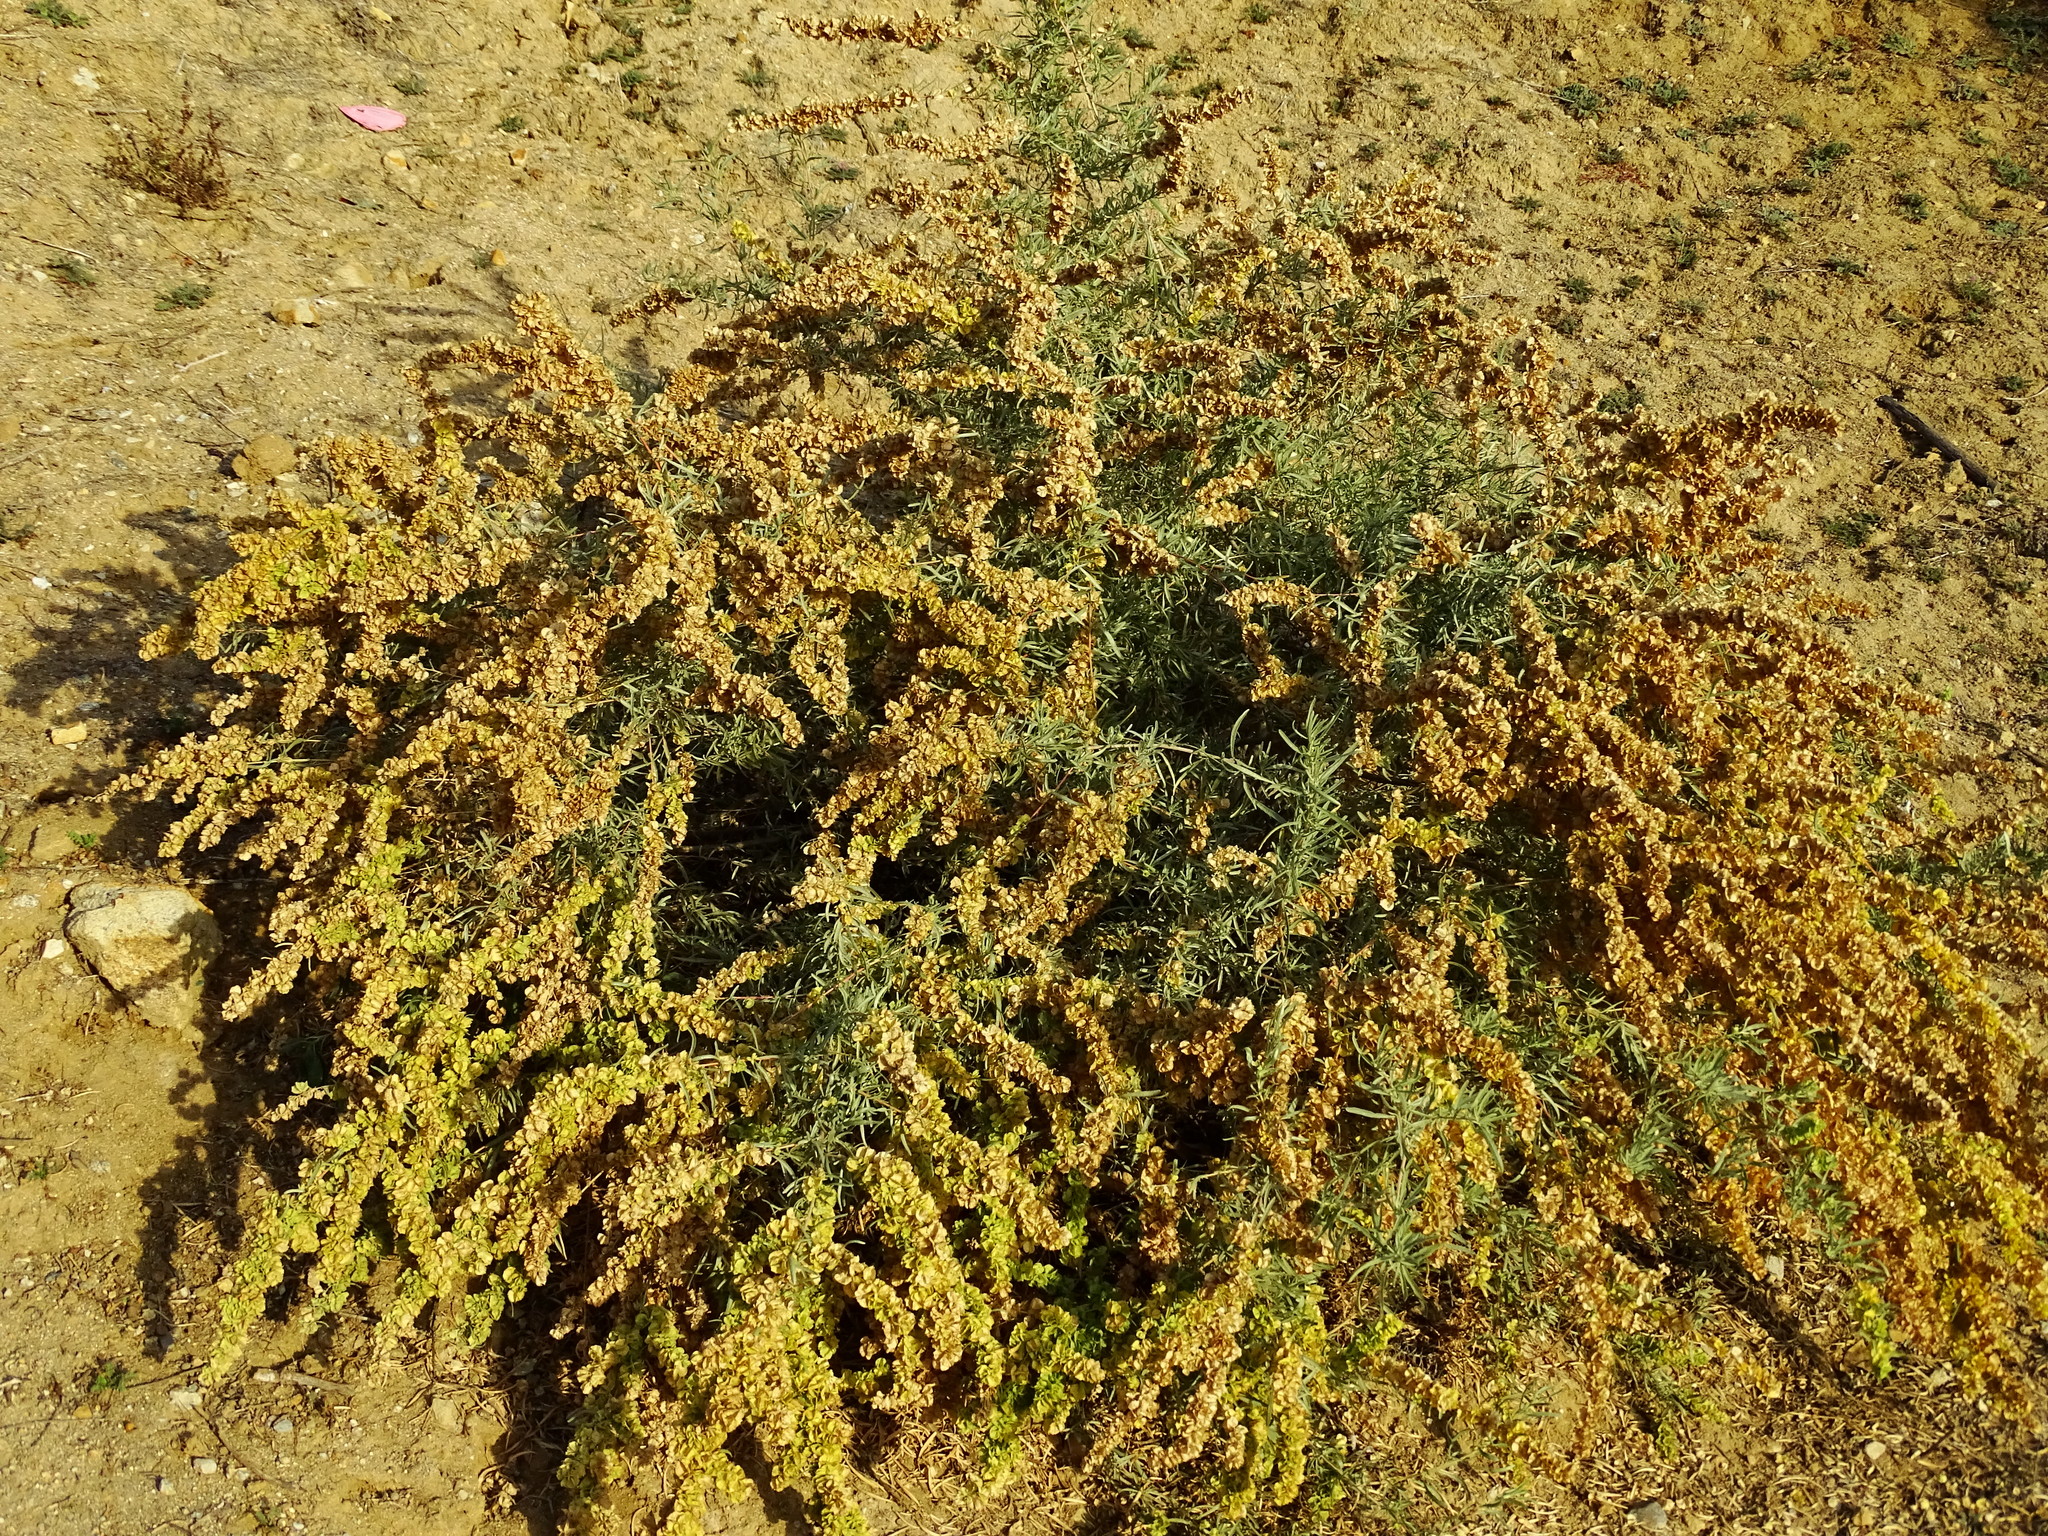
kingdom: Plantae
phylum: Tracheophyta
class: Magnoliopsida
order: Caryophyllales
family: Amaranthaceae
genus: Atriplex
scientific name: Atriplex canescens
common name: Four-wing saltbush
